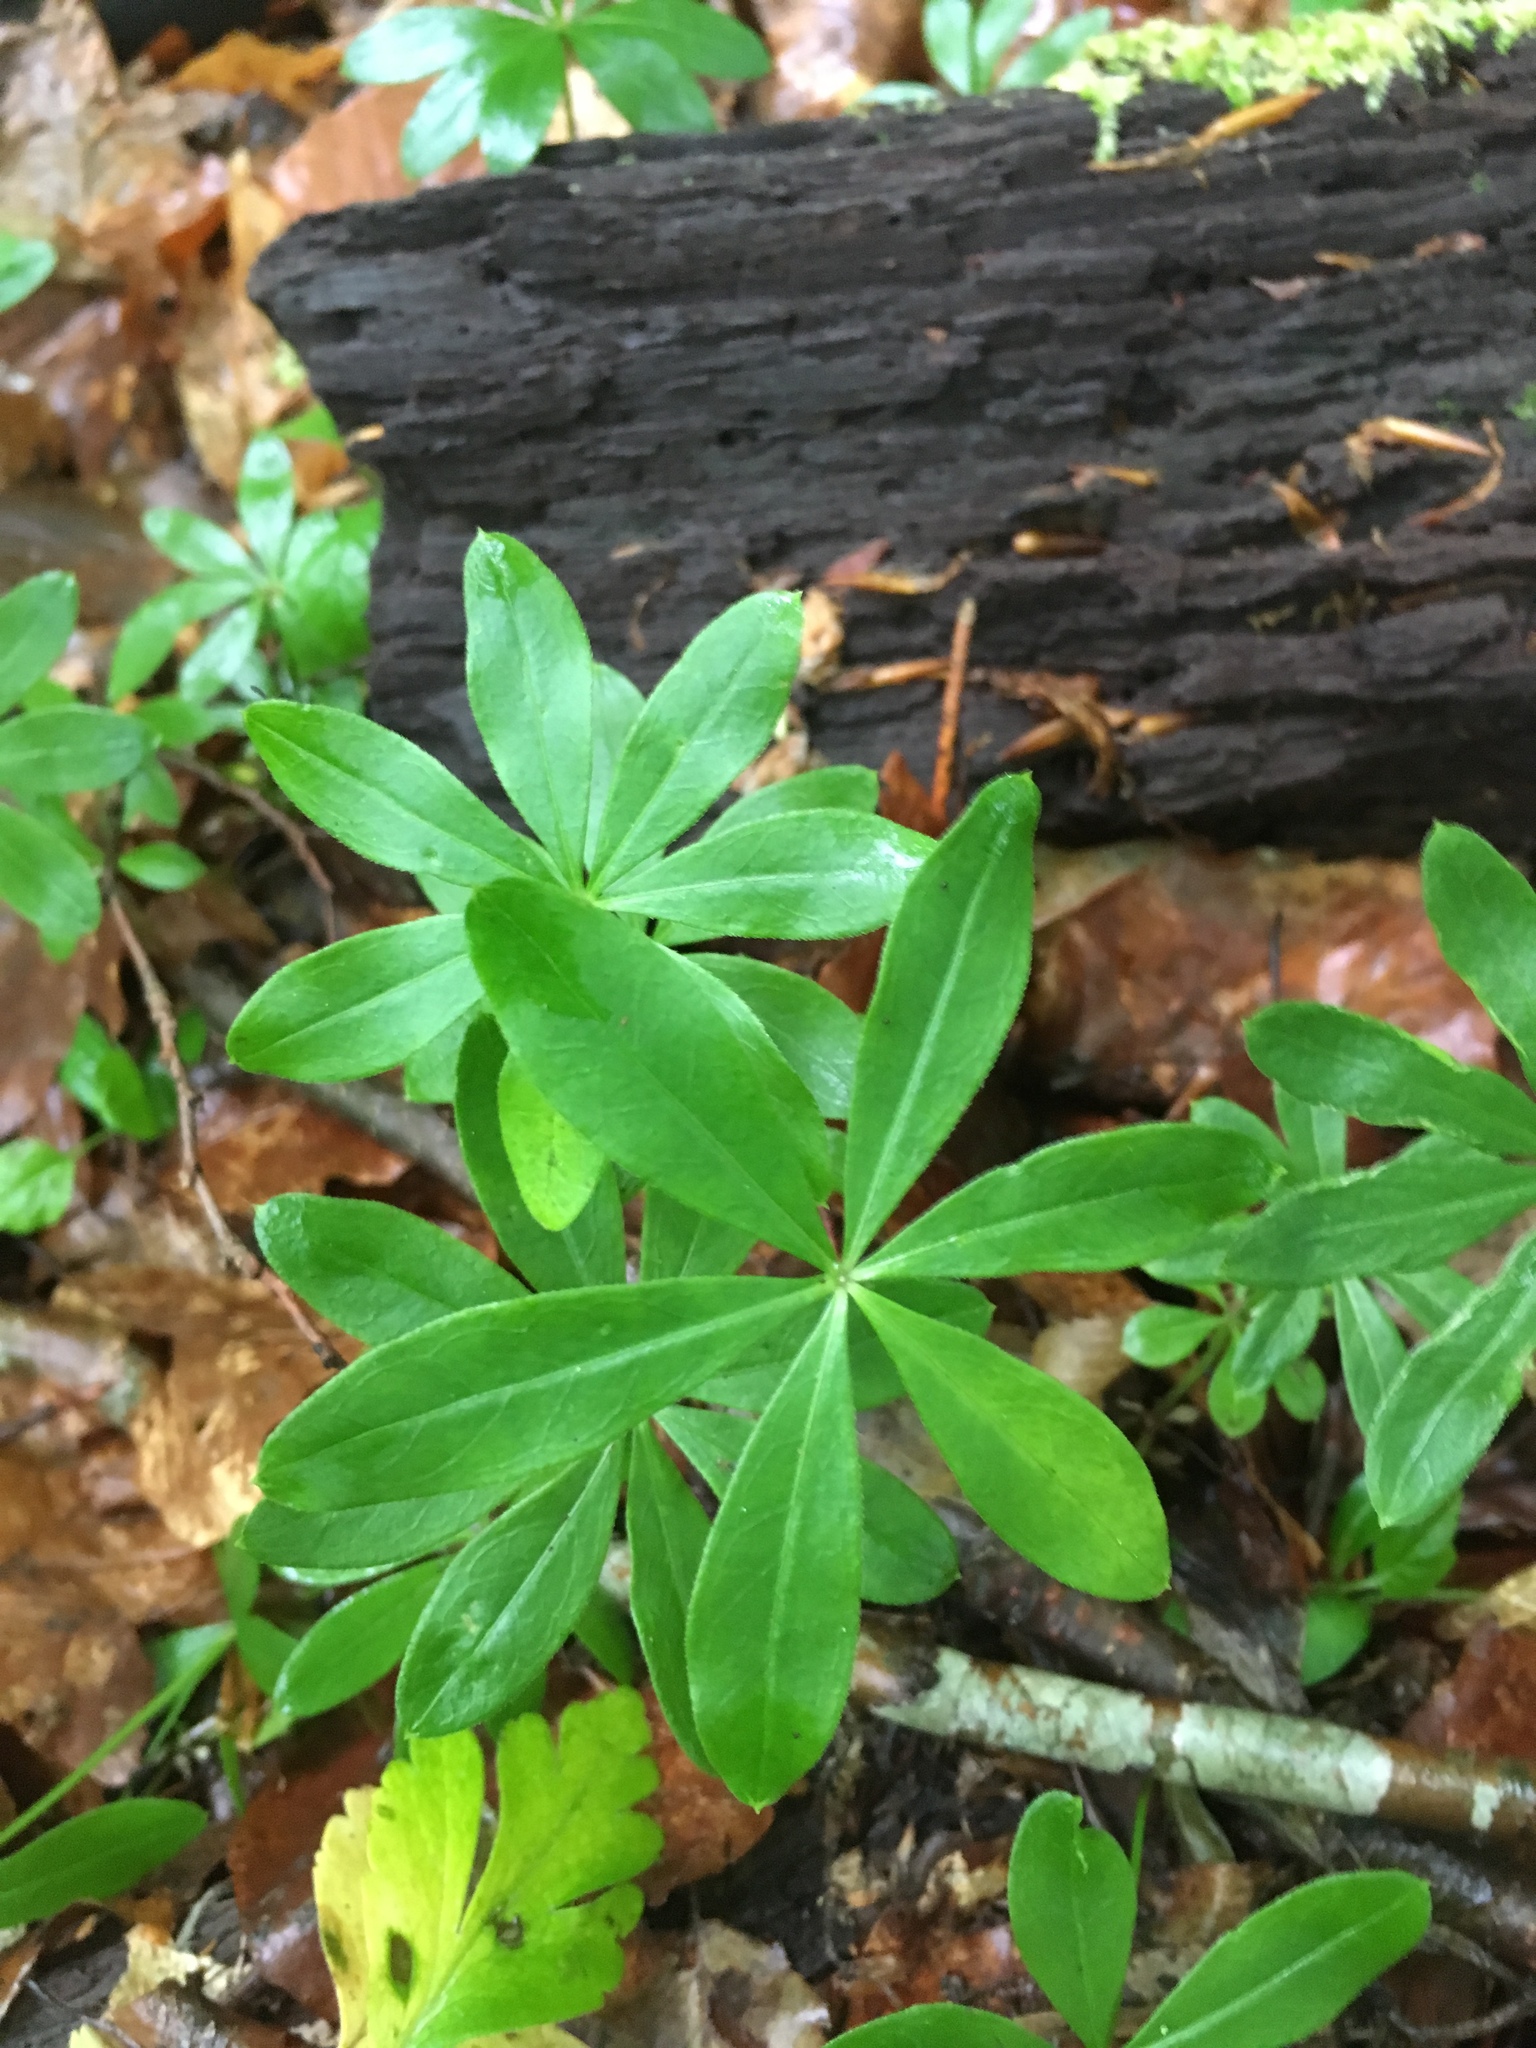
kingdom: Plantae
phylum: Tracheophyta
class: Magnoliopsida
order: Gentianales
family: Rubiaceae
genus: Galium
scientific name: Galium odoratum
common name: Sweet woodruff
